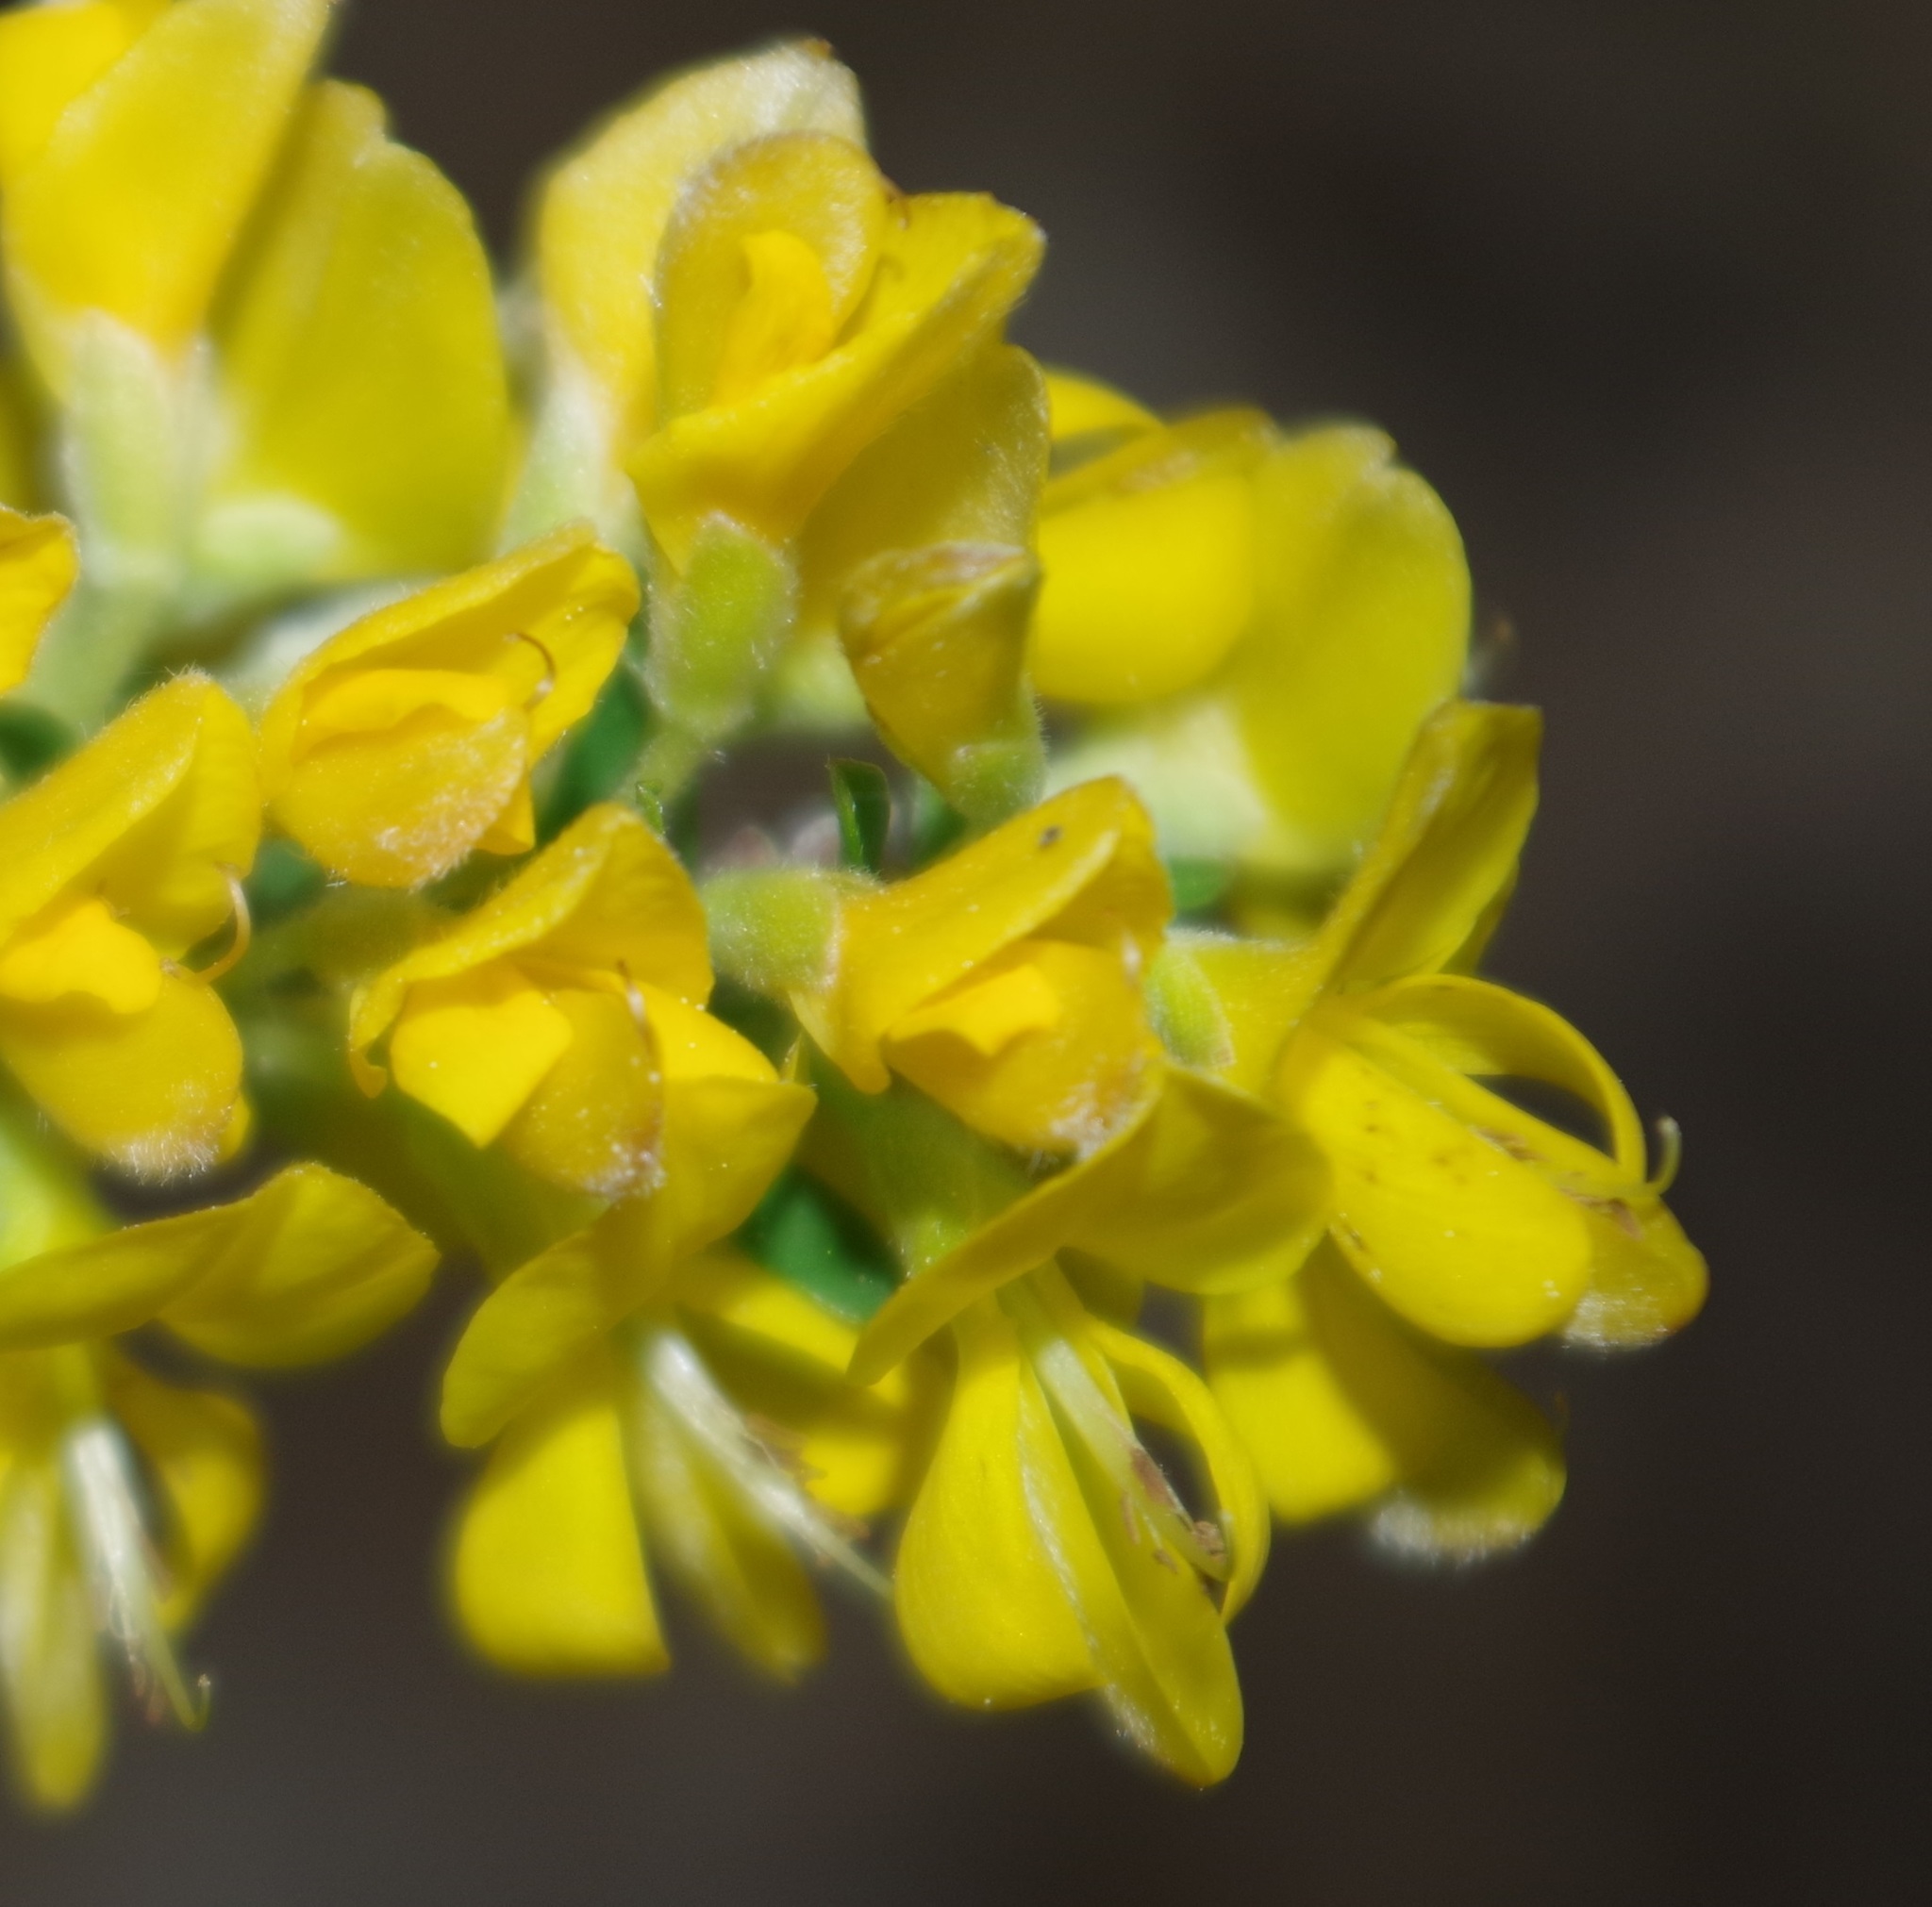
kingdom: Plantae
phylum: Tracheophyta
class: Magnoliopsida
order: Fabales
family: Fabaceae
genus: Genista
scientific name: Genista pilosa
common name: Hairy greenweed
